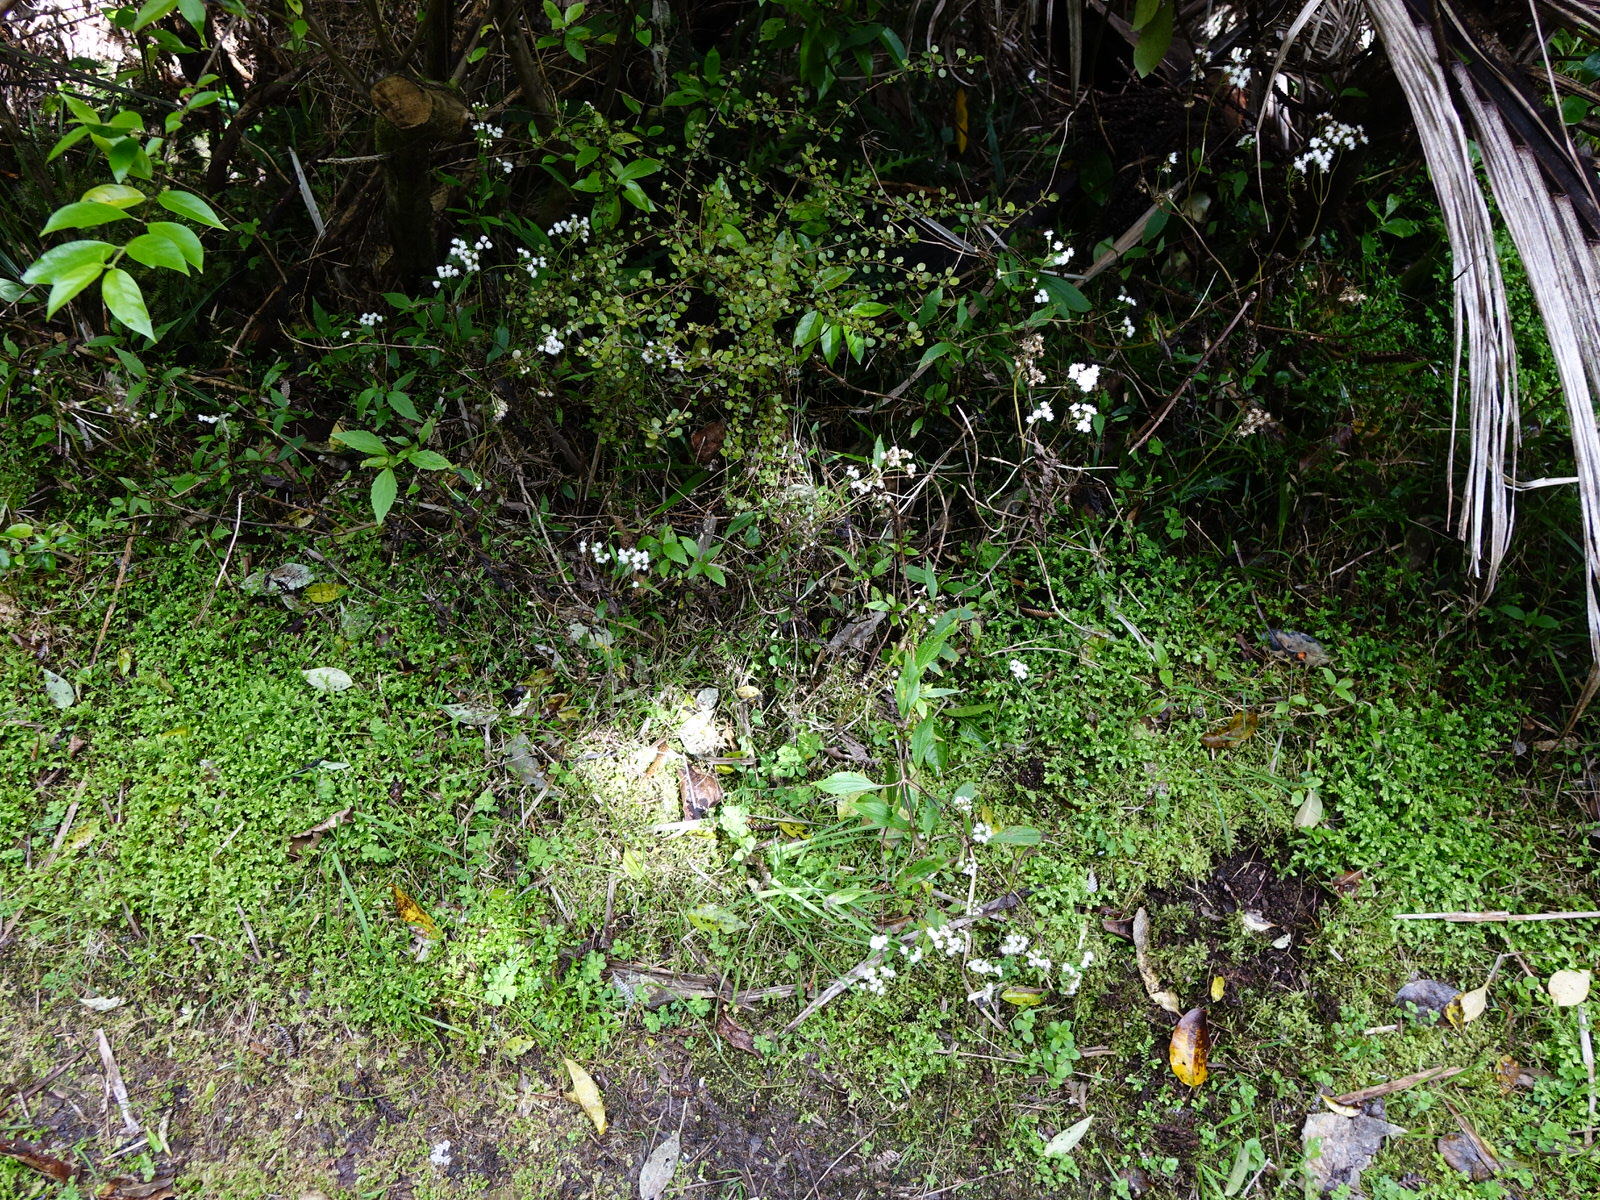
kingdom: Animalia
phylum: Arthropoda
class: Insecta
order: Diptera
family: Tephritidae
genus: Procecidochares
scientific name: Procecidochares alani
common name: Fruit fly
